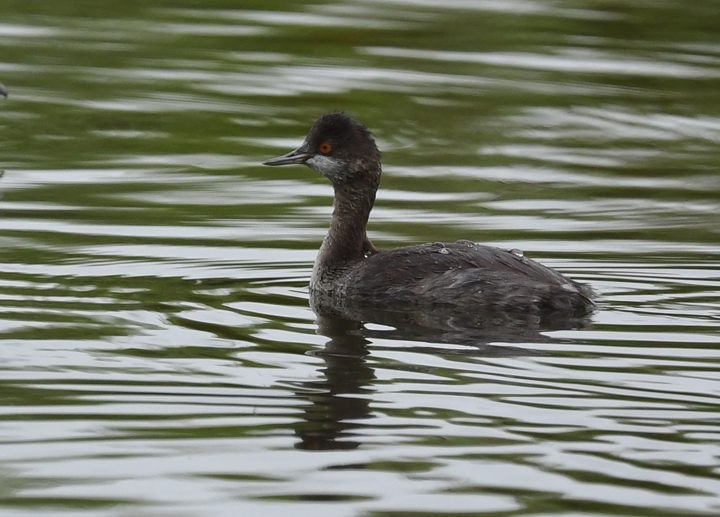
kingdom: Animalia
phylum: Chordata
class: Aves
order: Podicipediformes
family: Podicipedidae
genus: Podiceps
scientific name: Podiceps nigricollis
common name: Black-necked grebe
